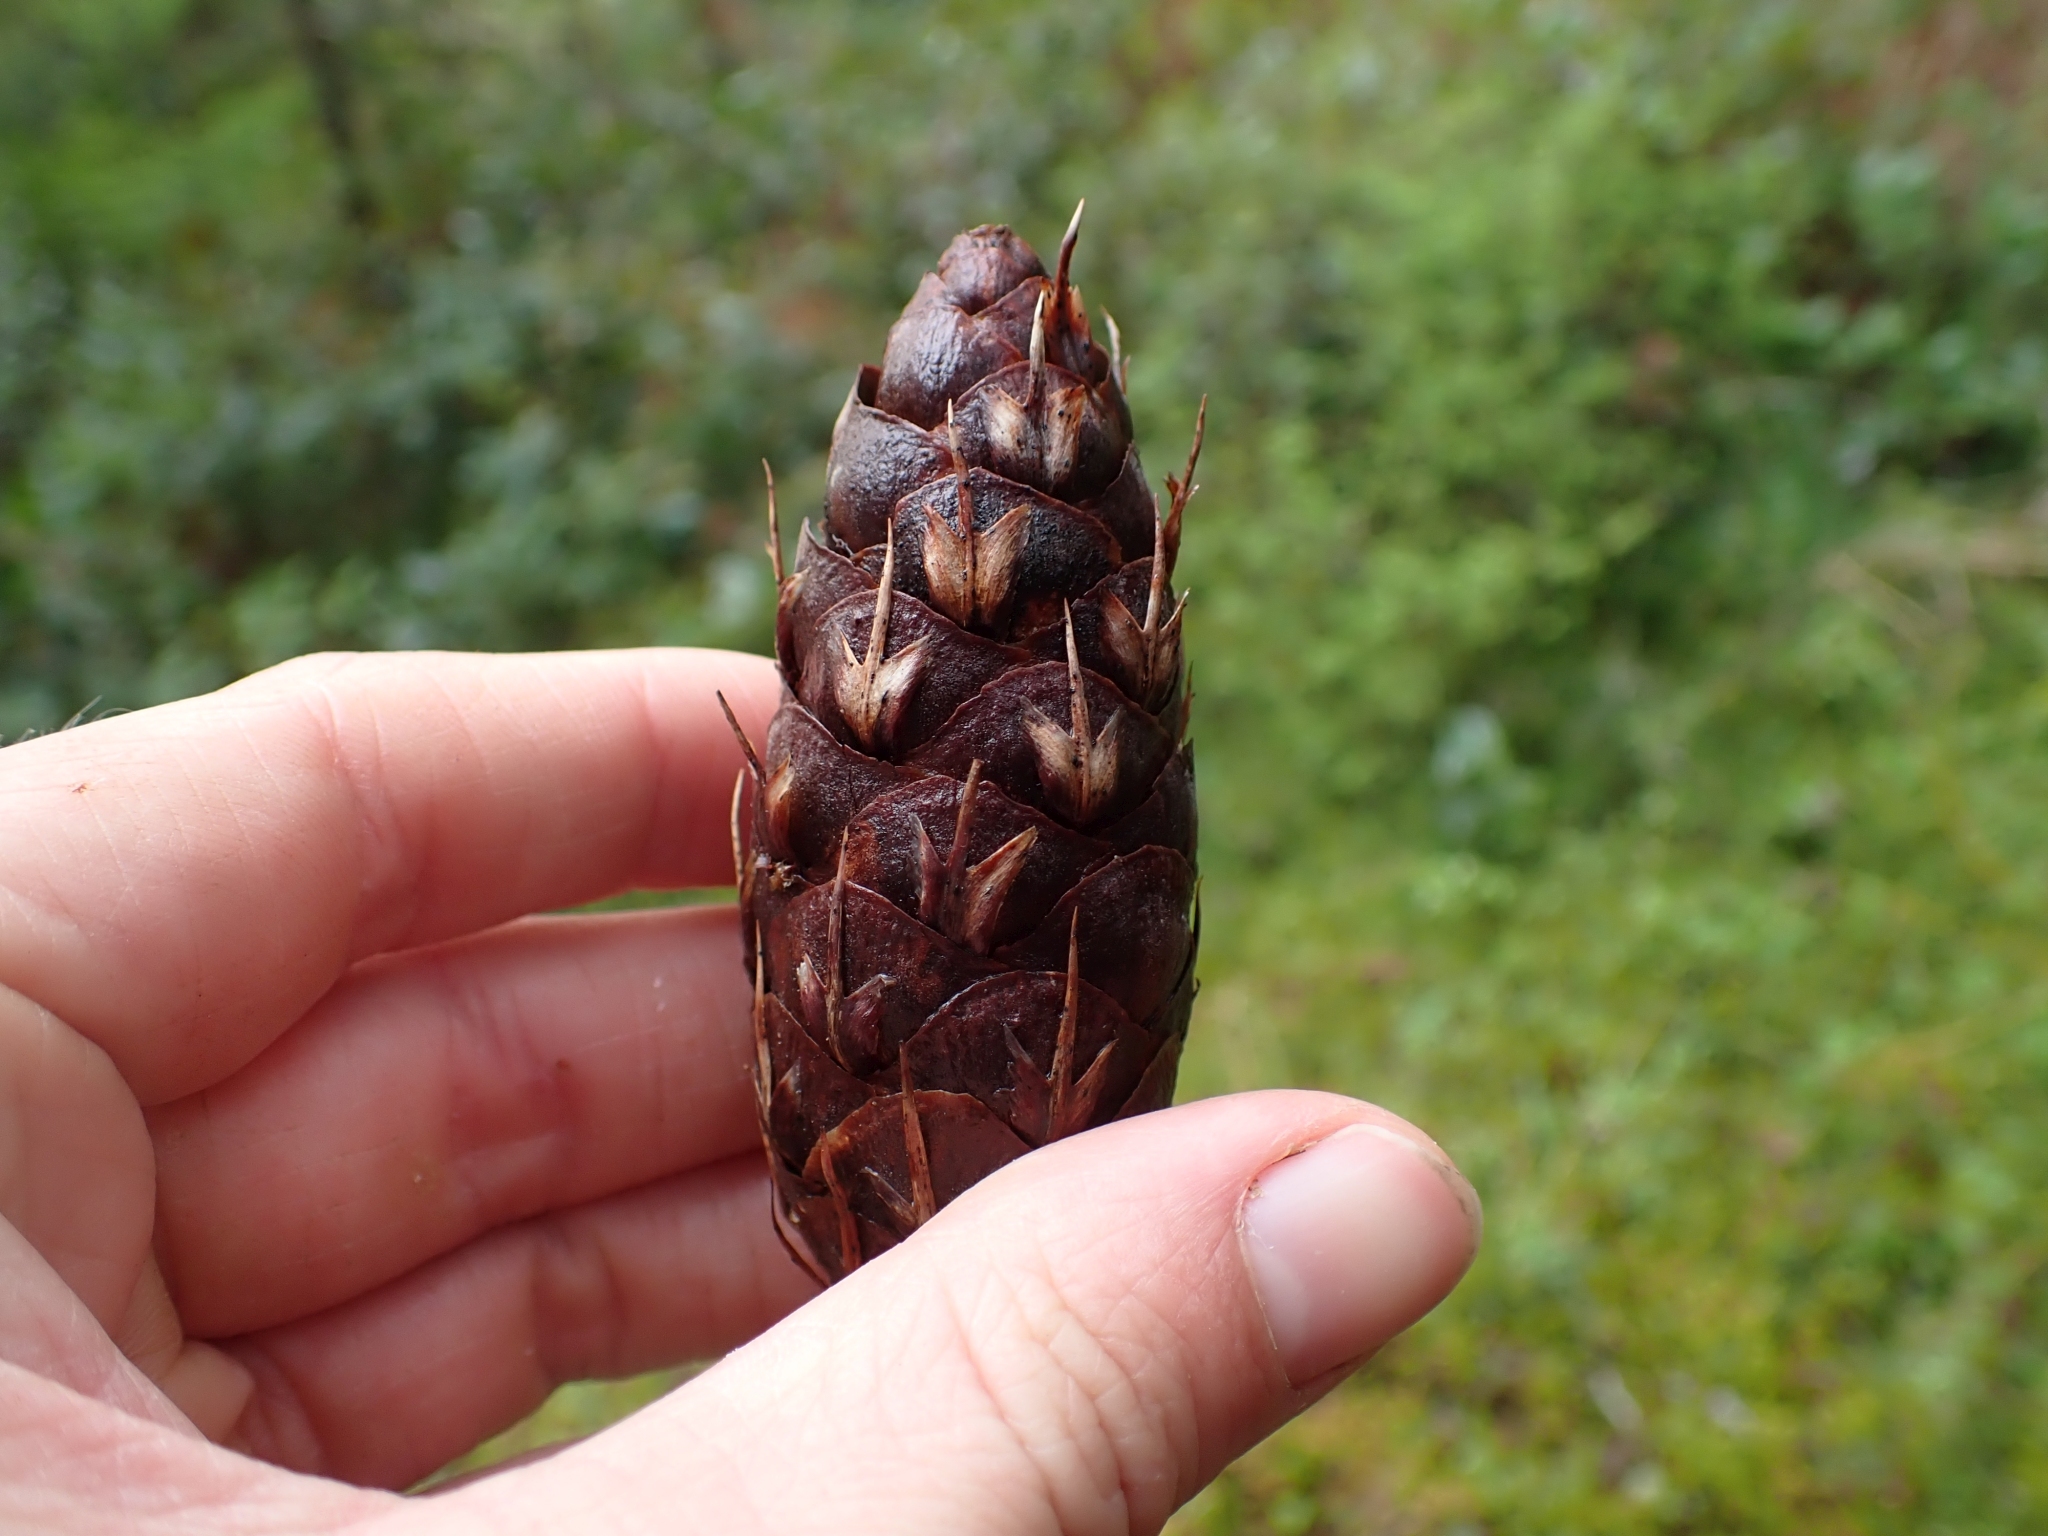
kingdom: Plantae
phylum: Tracheophyta
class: Pinopsida
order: Pinales
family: Pinaceae
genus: Pseudotsuga
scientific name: Pseudotsuga menziesii
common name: Douglas fir
